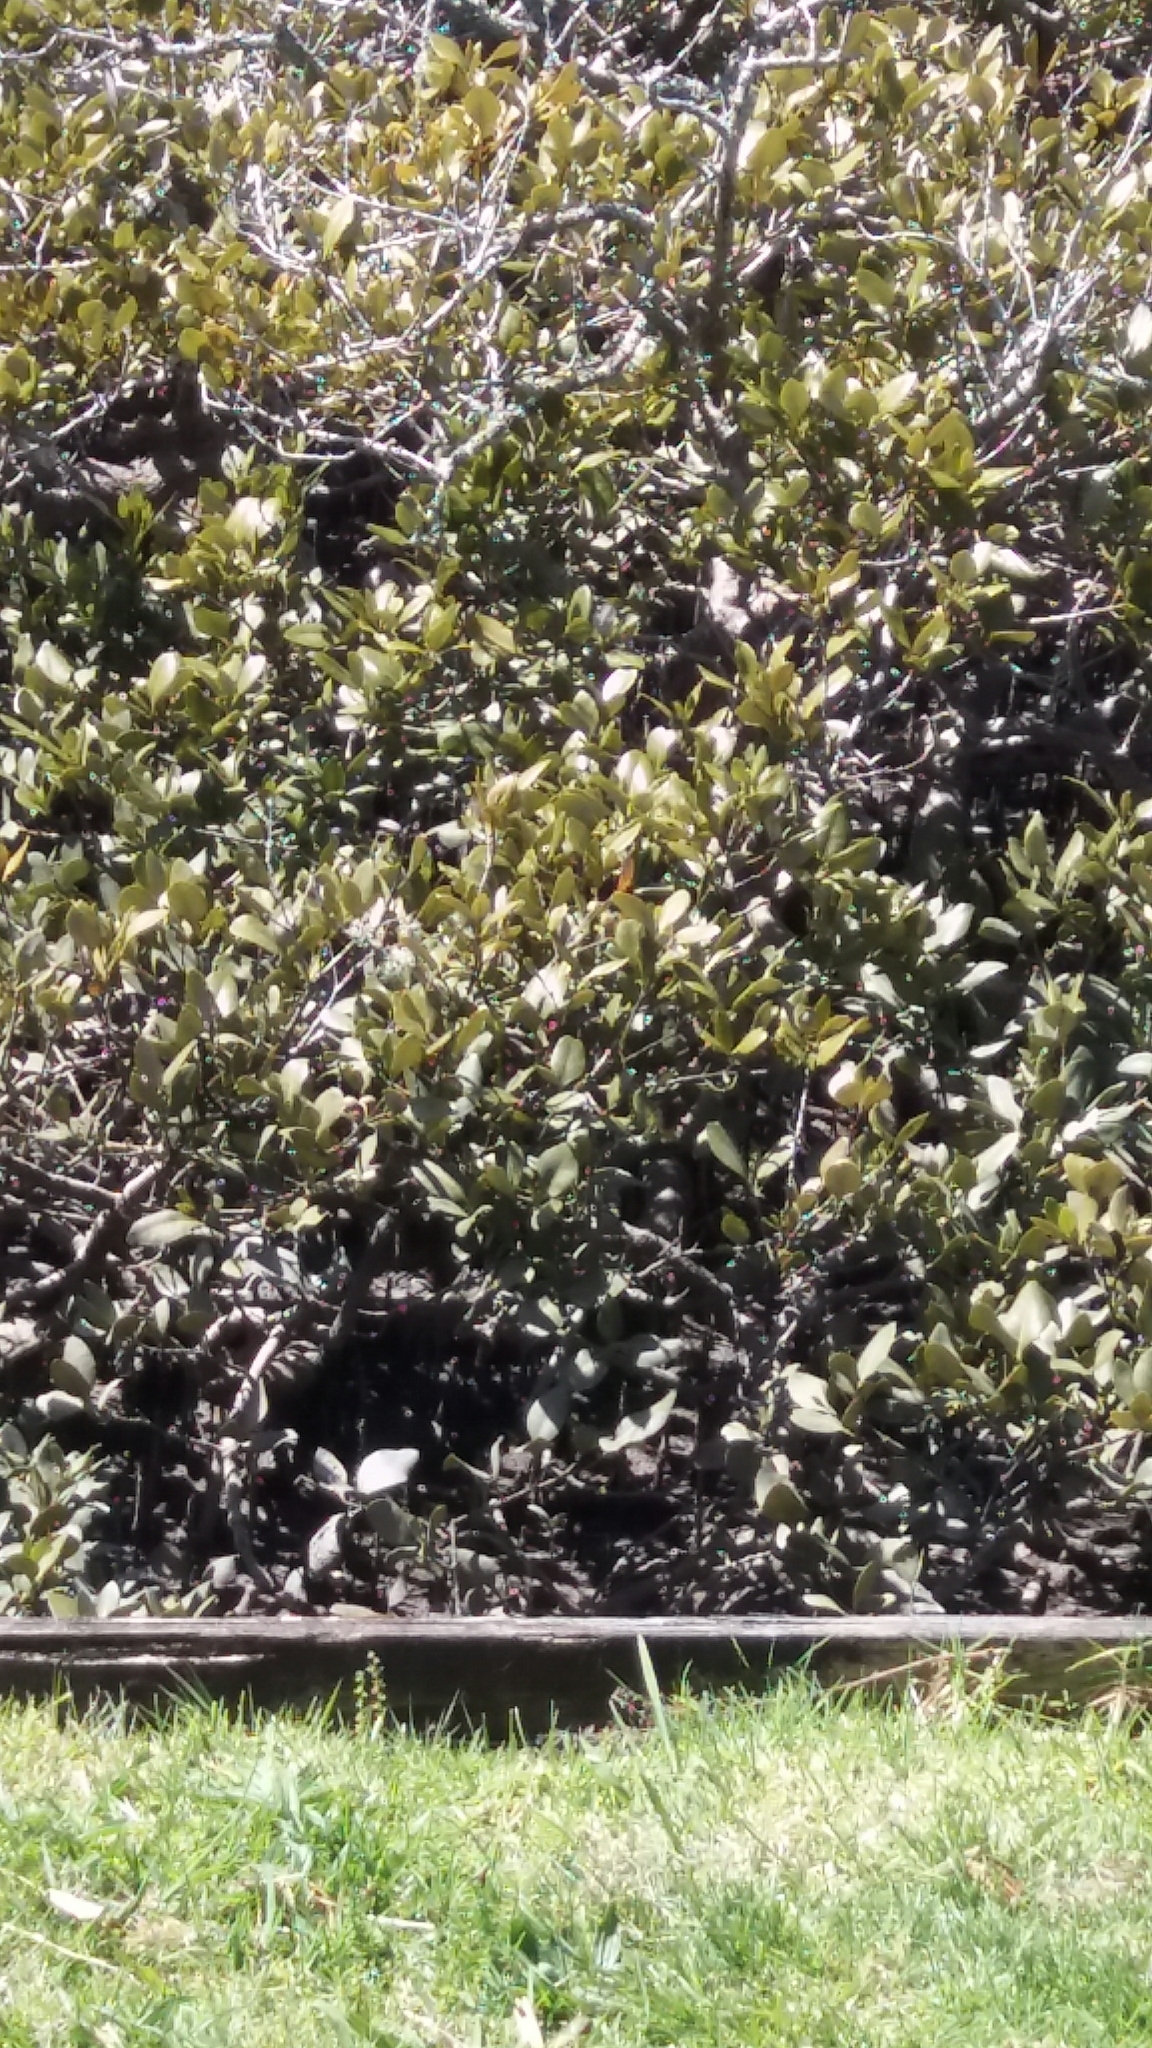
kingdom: Plantae
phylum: Tracheophyta
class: Magnoliopsida
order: Lamiales
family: Acanthaceae
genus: Avicennia
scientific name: Avicennia marina
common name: Gray mangrove
